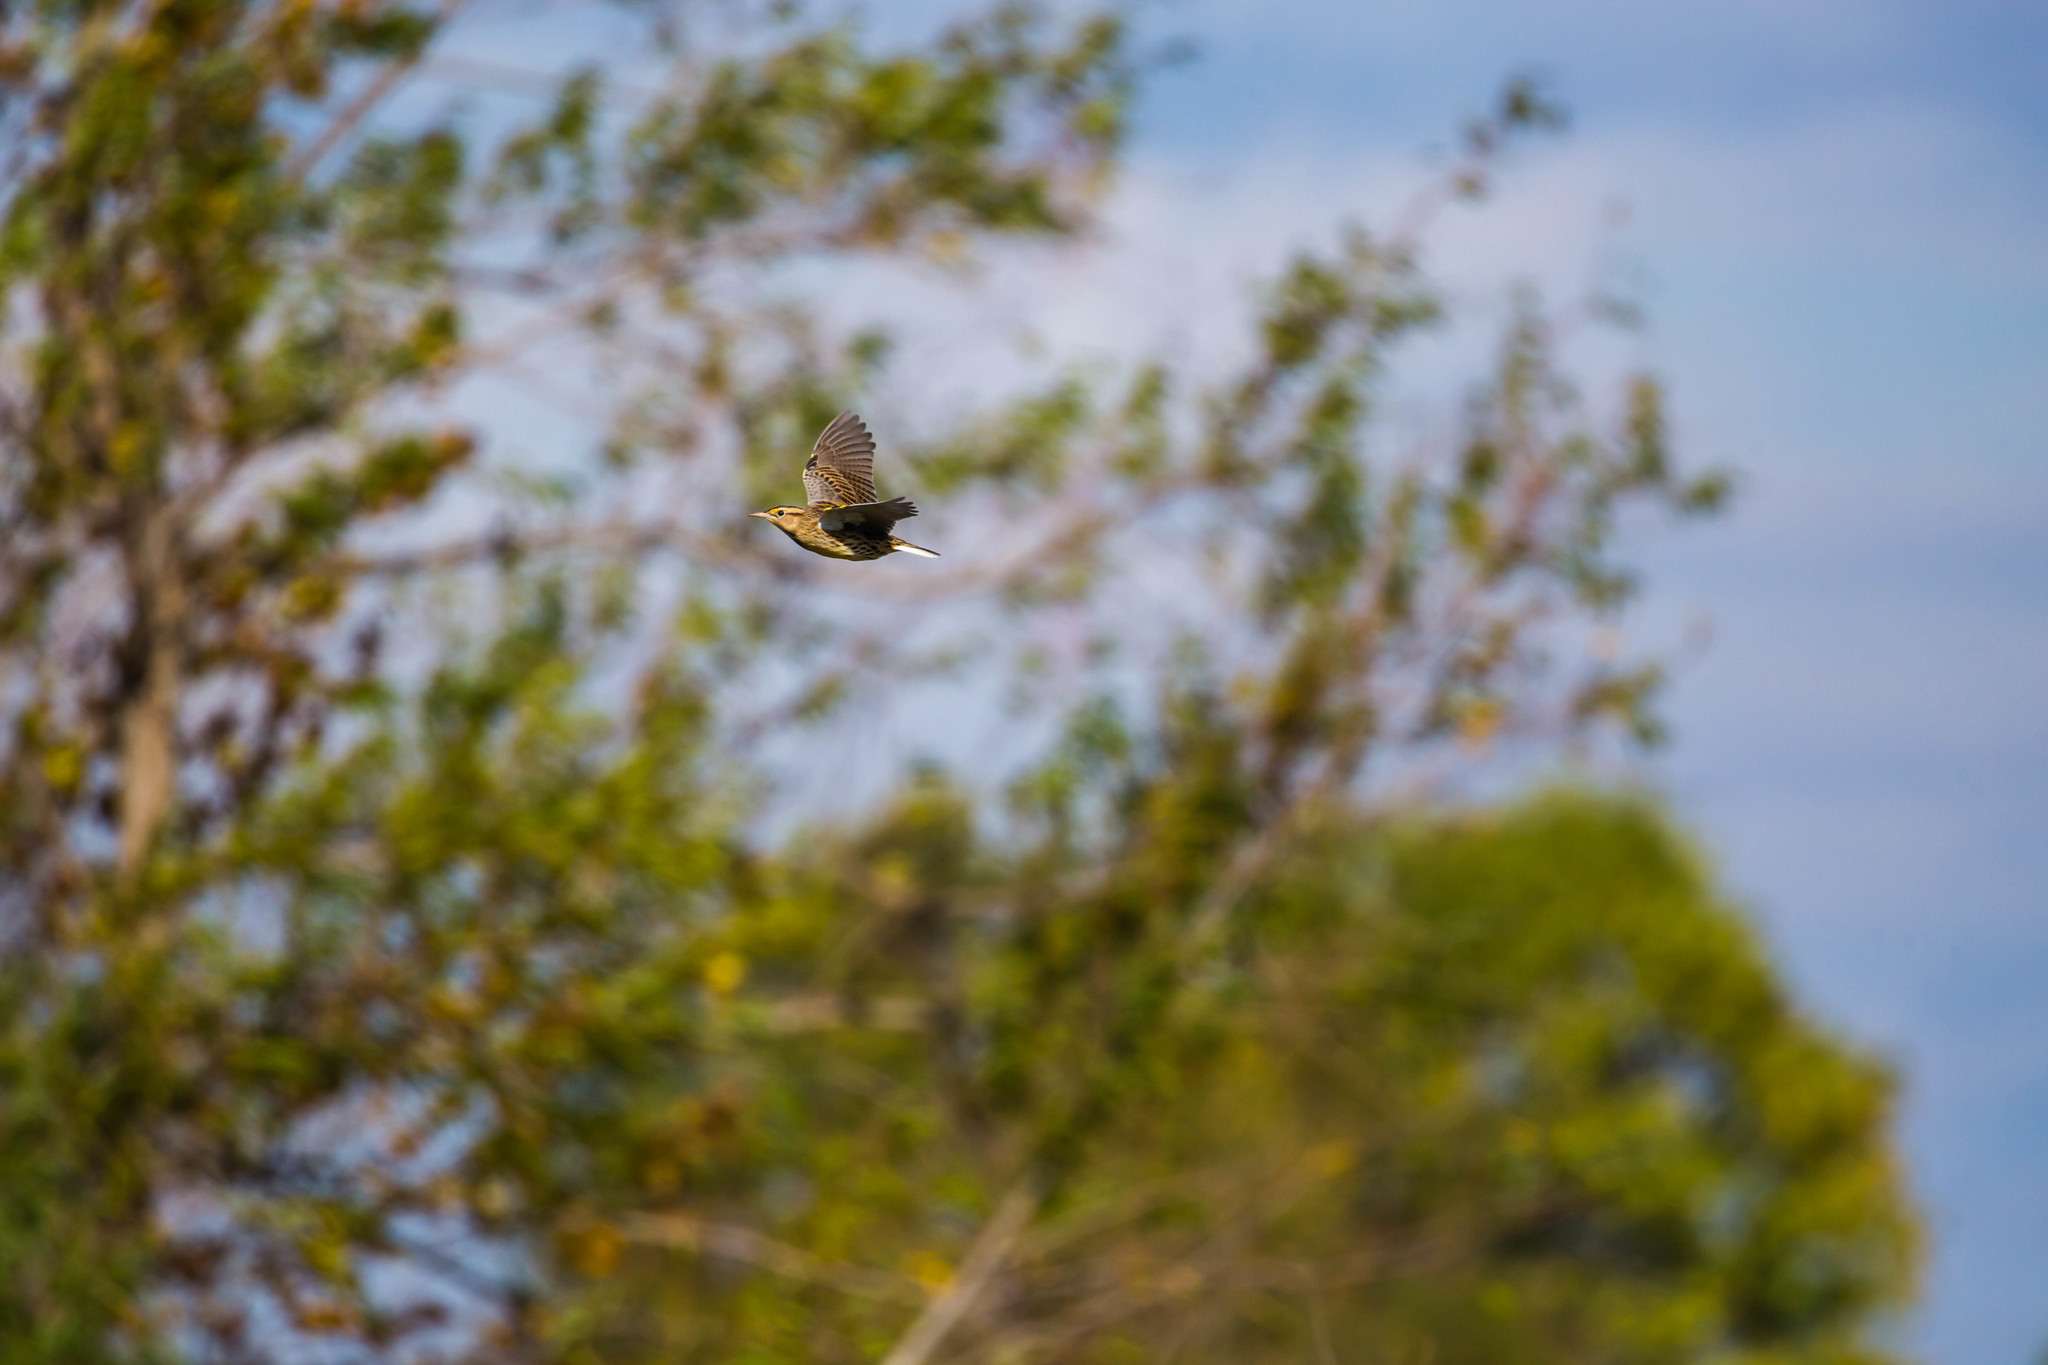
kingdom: Animalia
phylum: Chordata
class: Aves
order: Passeriformes
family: Icteridae
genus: Sturnella
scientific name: Sturnella magna
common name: Eastern meadowlark
